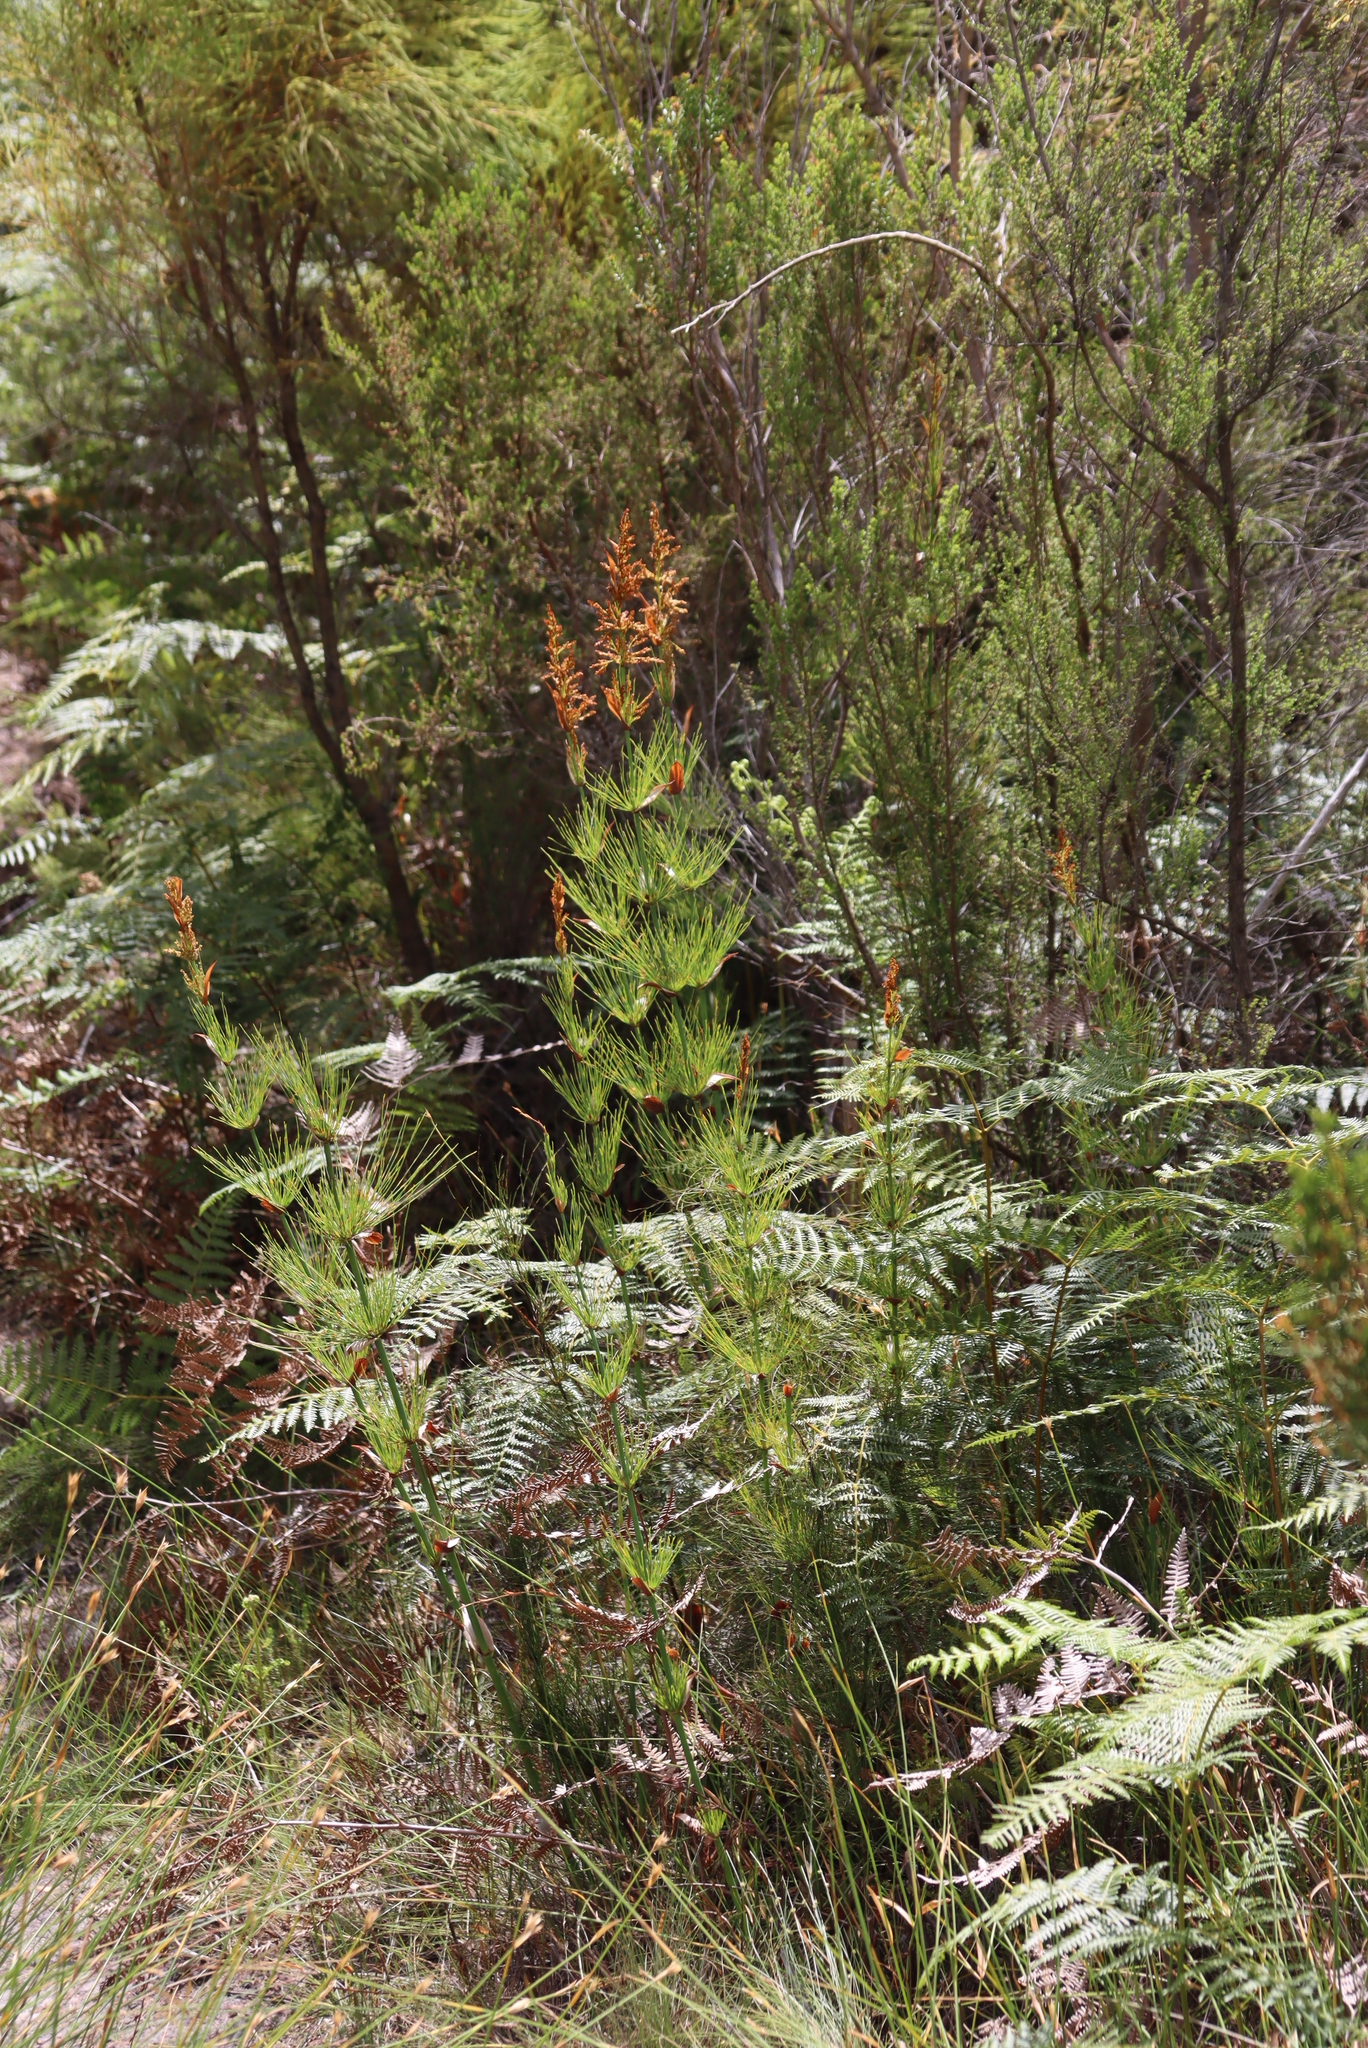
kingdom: Plantae
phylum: Tracheophyta
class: Liliopsida
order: Poales
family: Restionaceae
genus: Elegia
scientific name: Elegia capensis
